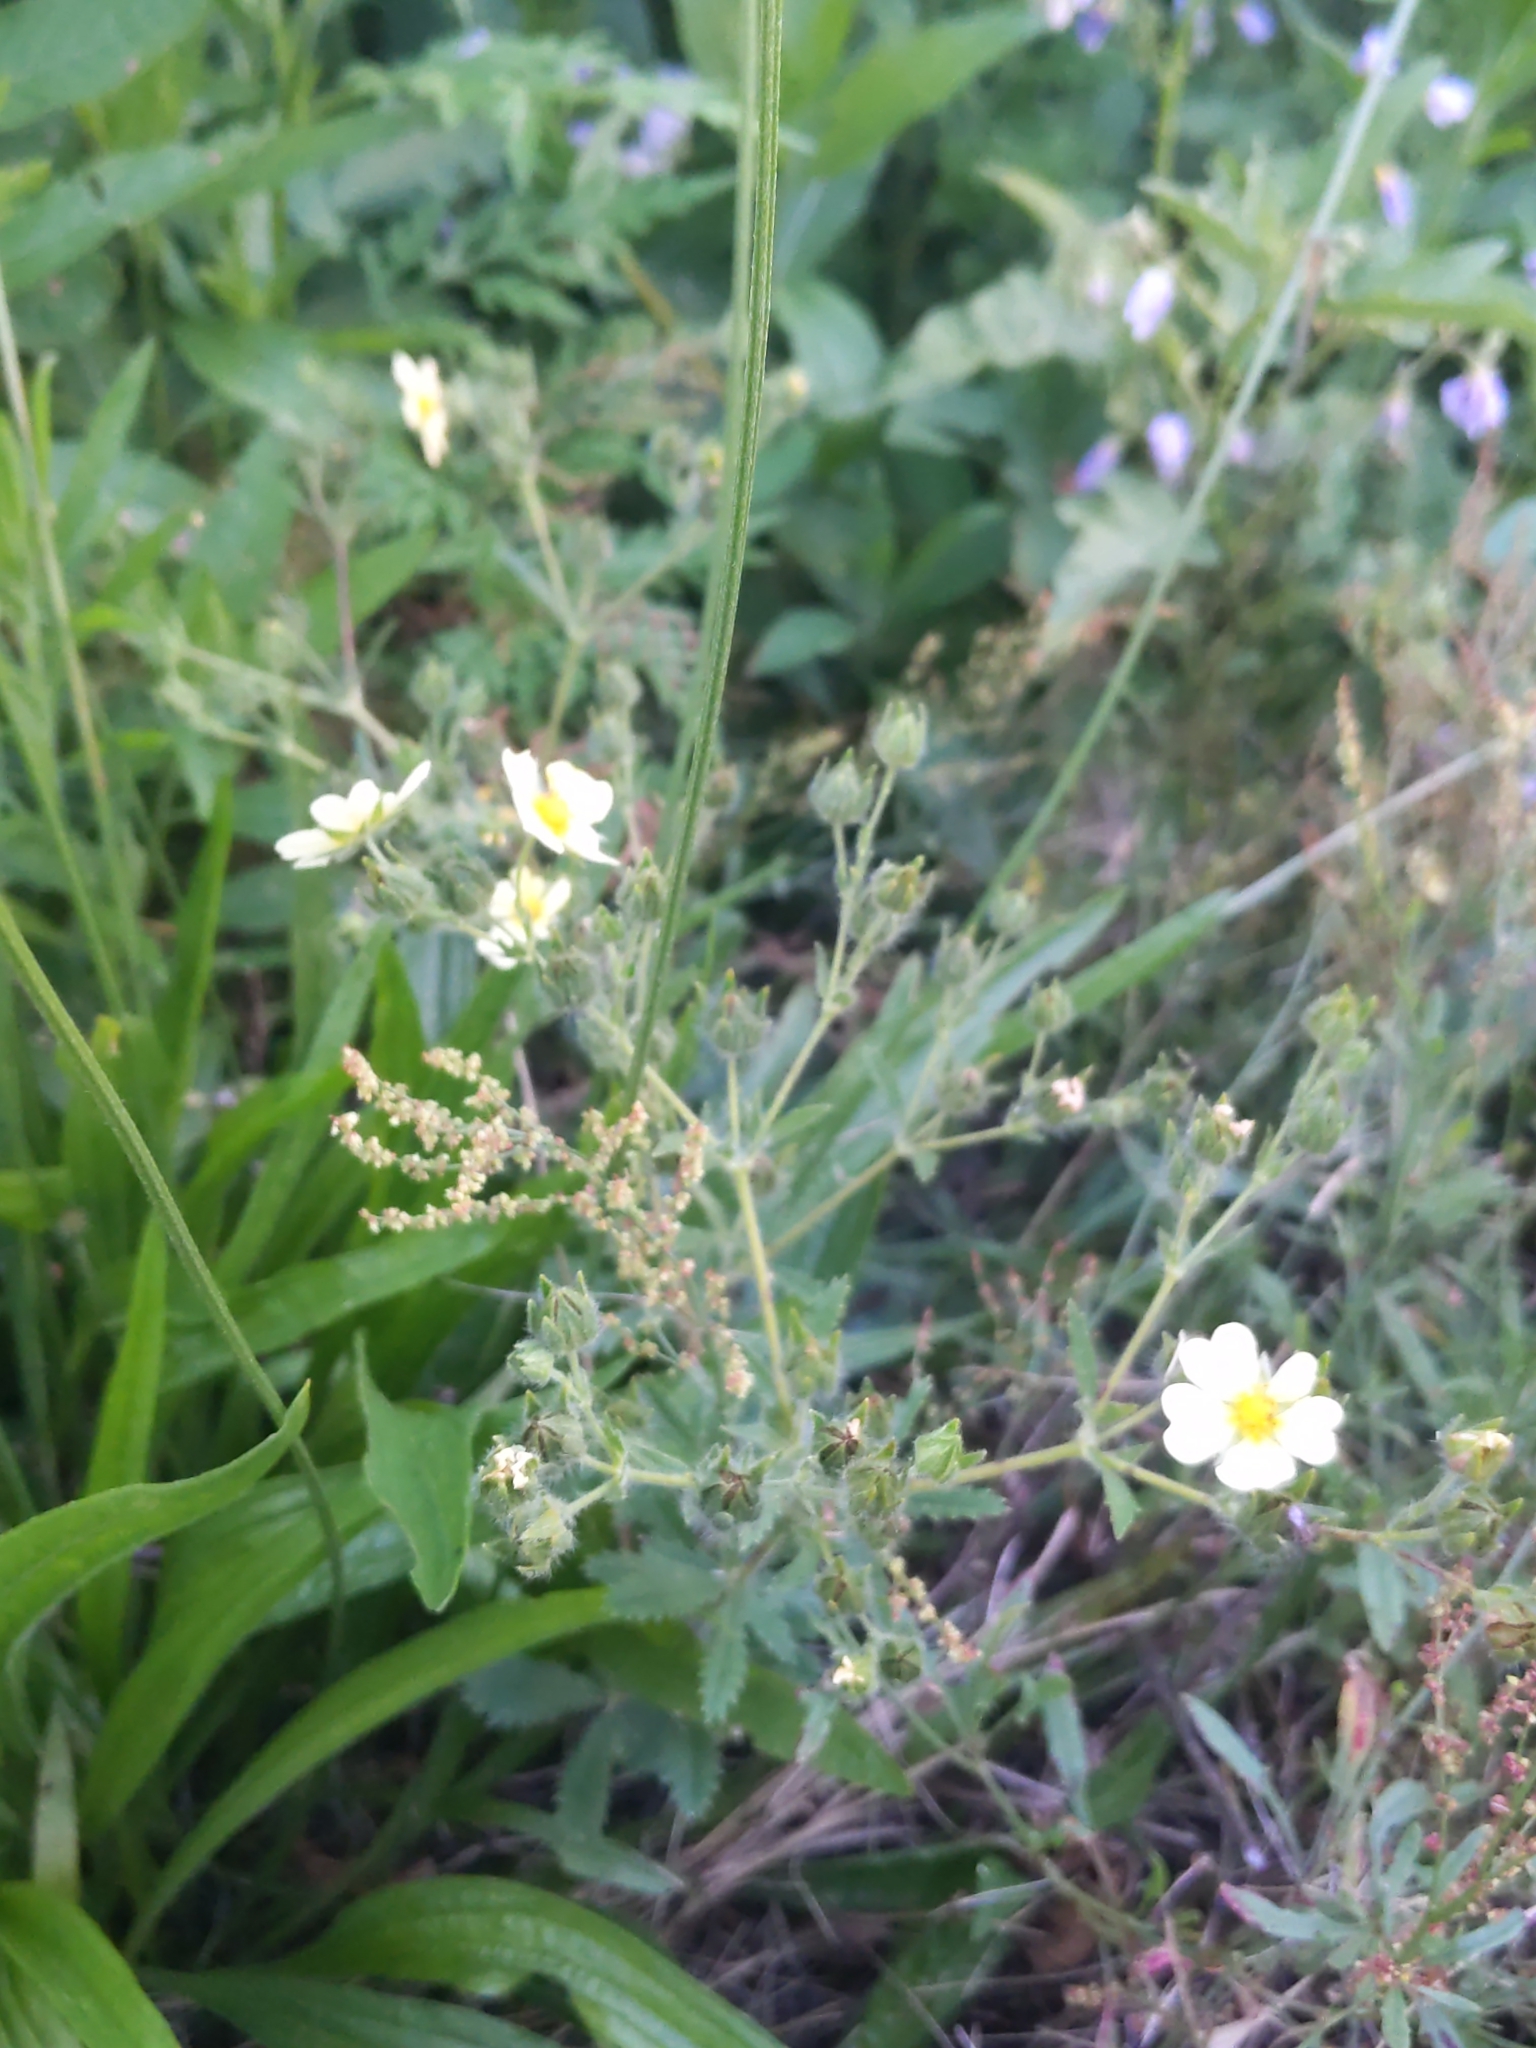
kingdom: Plantae
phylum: Tracheophyta
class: Magnoliopsida
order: Rosales
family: Rosaceae
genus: Potentilla
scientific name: Potentilla recta
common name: Sulphur cinquefoil
